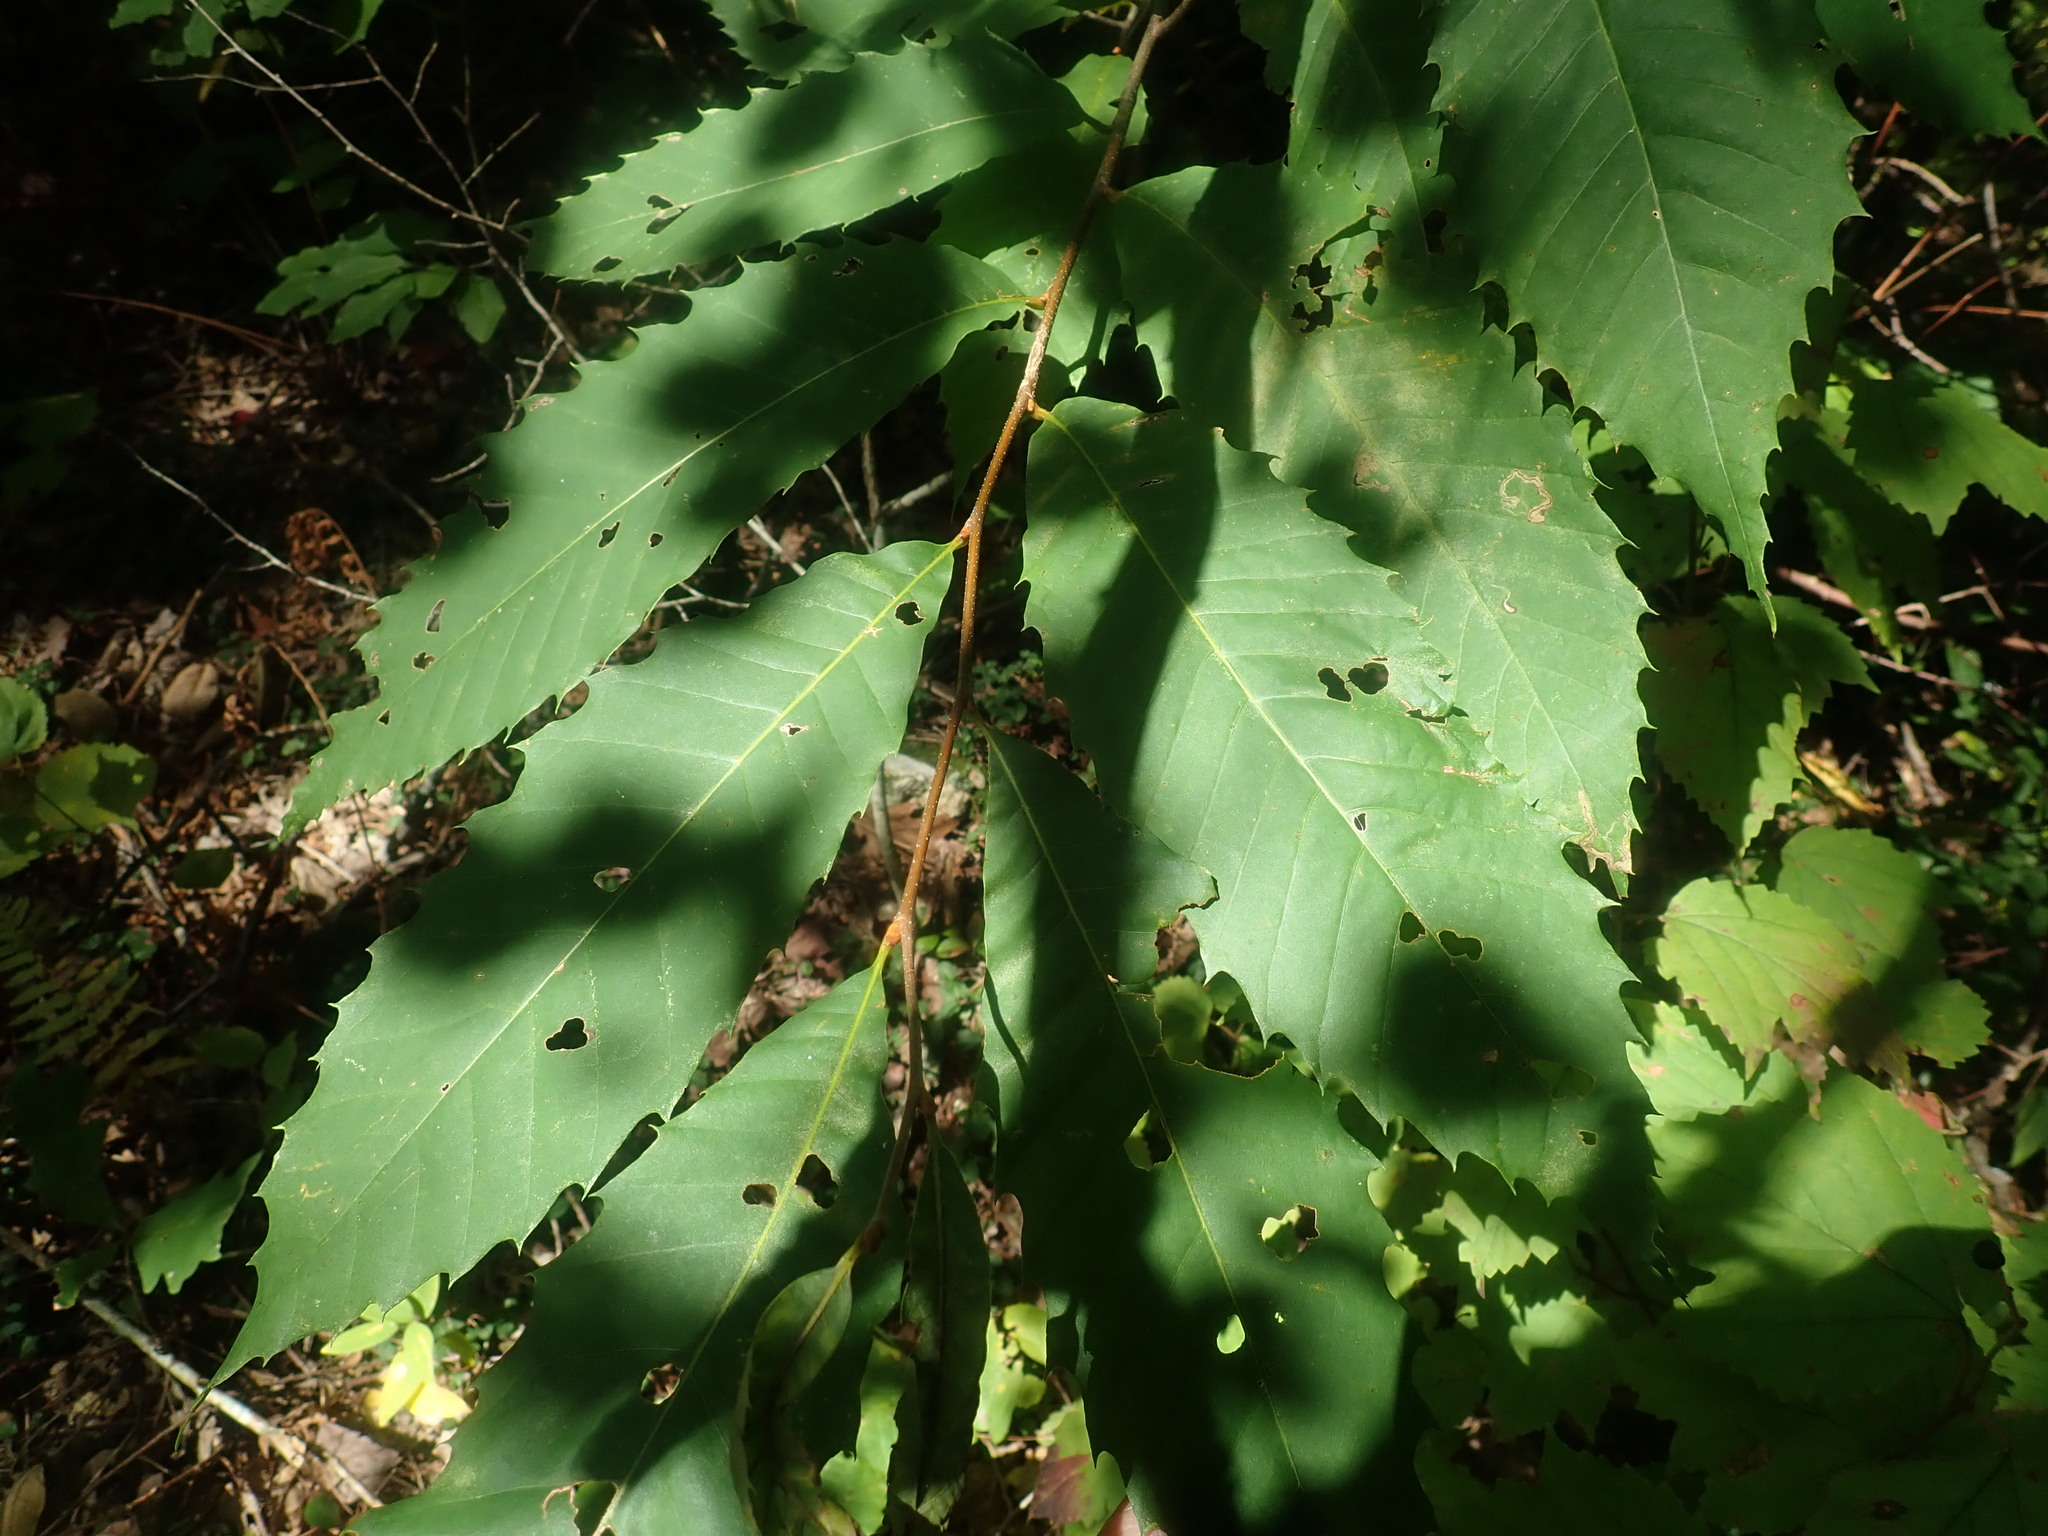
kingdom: Plantae
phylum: Tracheophyta
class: Magnoliopsida
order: Fagales
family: Fagaceae
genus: Castanea
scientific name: Castanea dentata
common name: American chestnut
